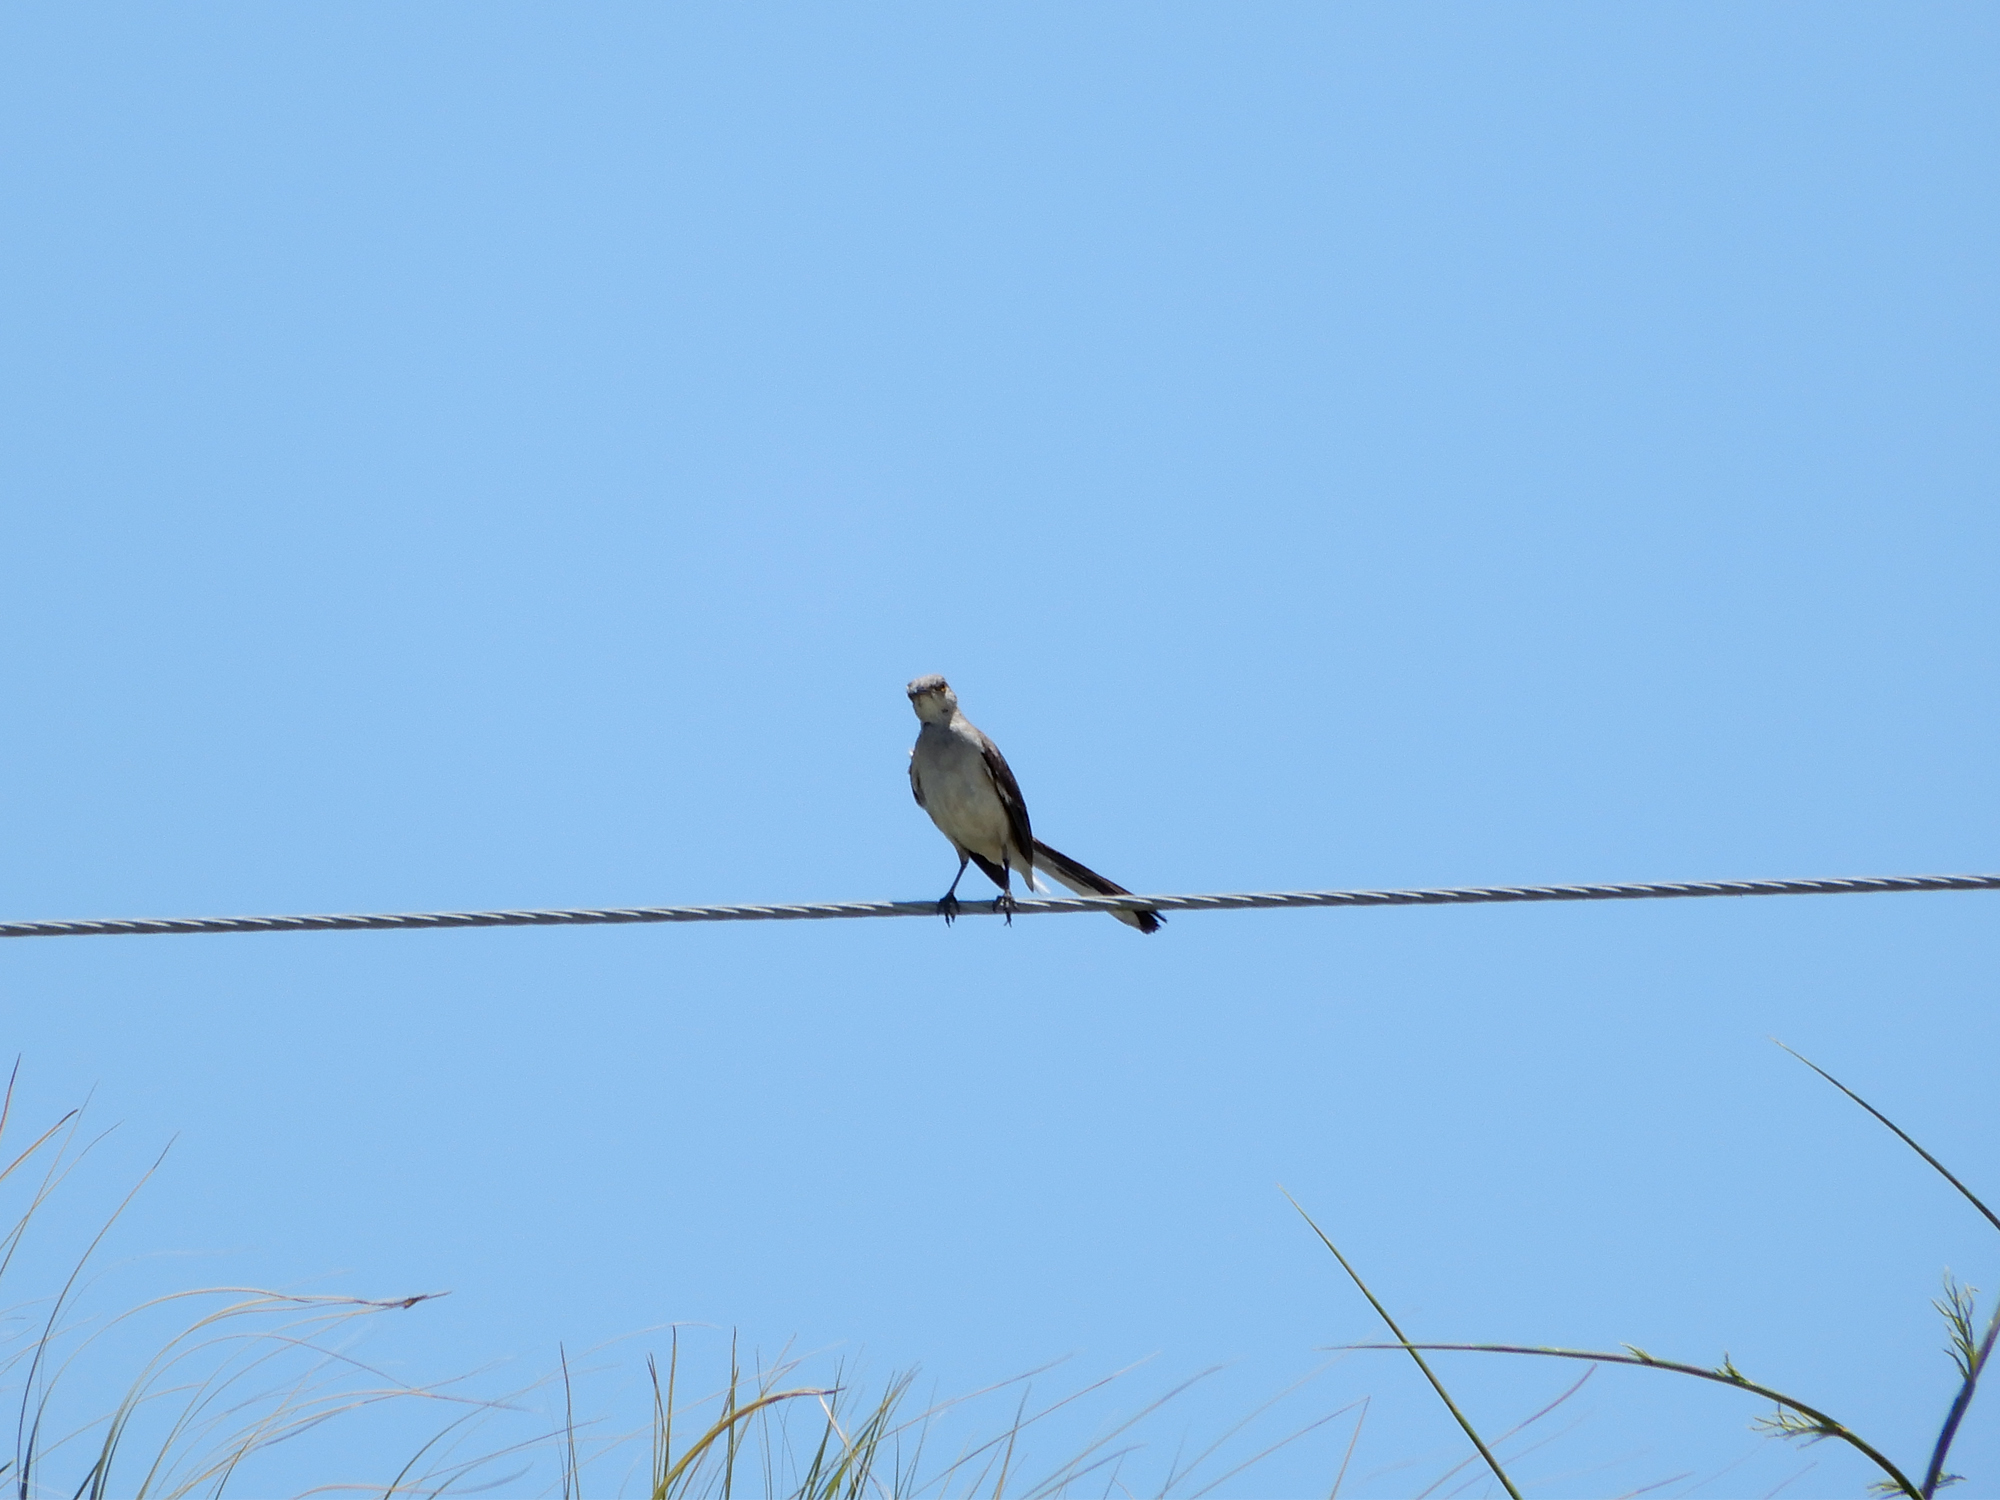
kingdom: Animalia
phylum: Chordata
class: Aves
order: Passeriformes
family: Mimidae
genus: Mimus
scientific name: Mimus polyglottos
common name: Northern mockingbird
